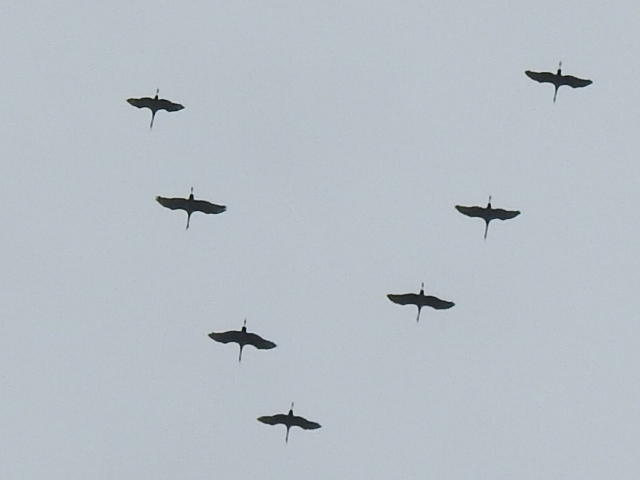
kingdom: Animalia
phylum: Chordata
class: Aves
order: Gruiformes
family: Gruidae
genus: Grus
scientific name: Grus canadensis
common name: Sandhill crane
